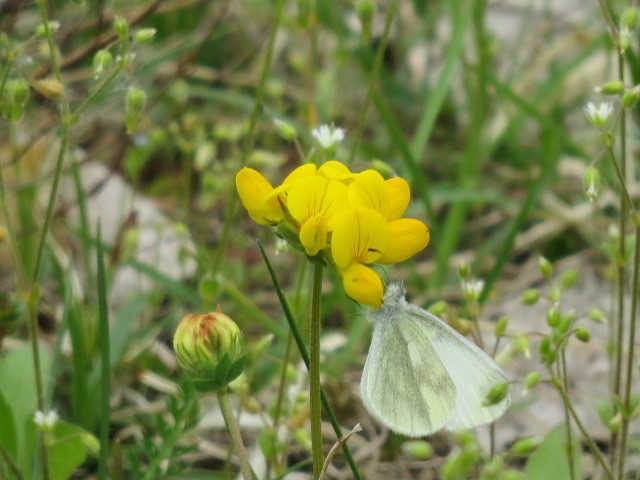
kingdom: Animalia
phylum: Arthropoda
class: Insecta
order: Lepidoptera
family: Pieridae
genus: Leptidea
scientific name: Leptidea
